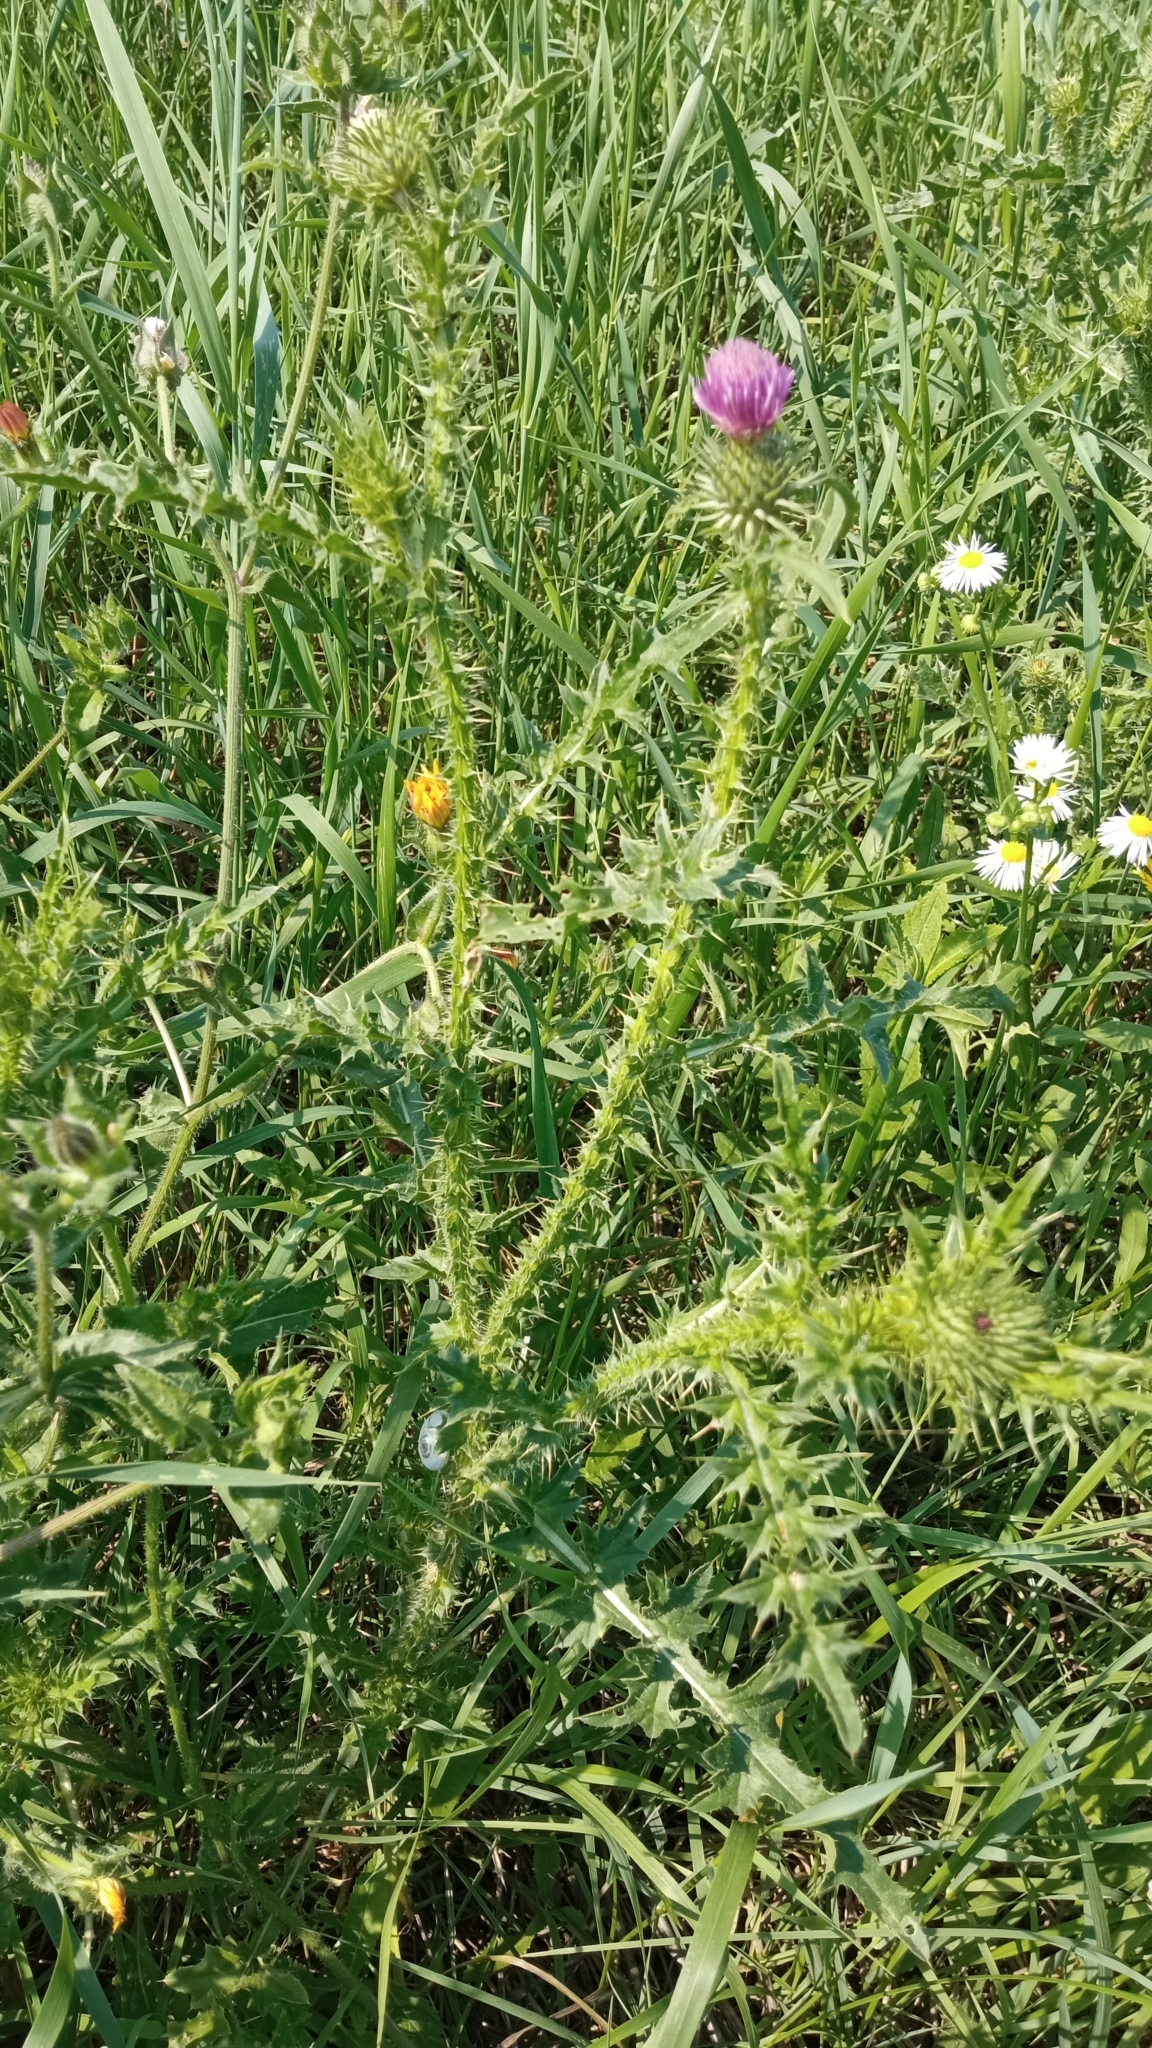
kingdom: Plantae
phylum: Tracheophyta
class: Magnoliopsida
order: Asterales
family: Asteraceae
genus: Carduus
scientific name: Carduus acanthoides
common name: Plumeless thistle
